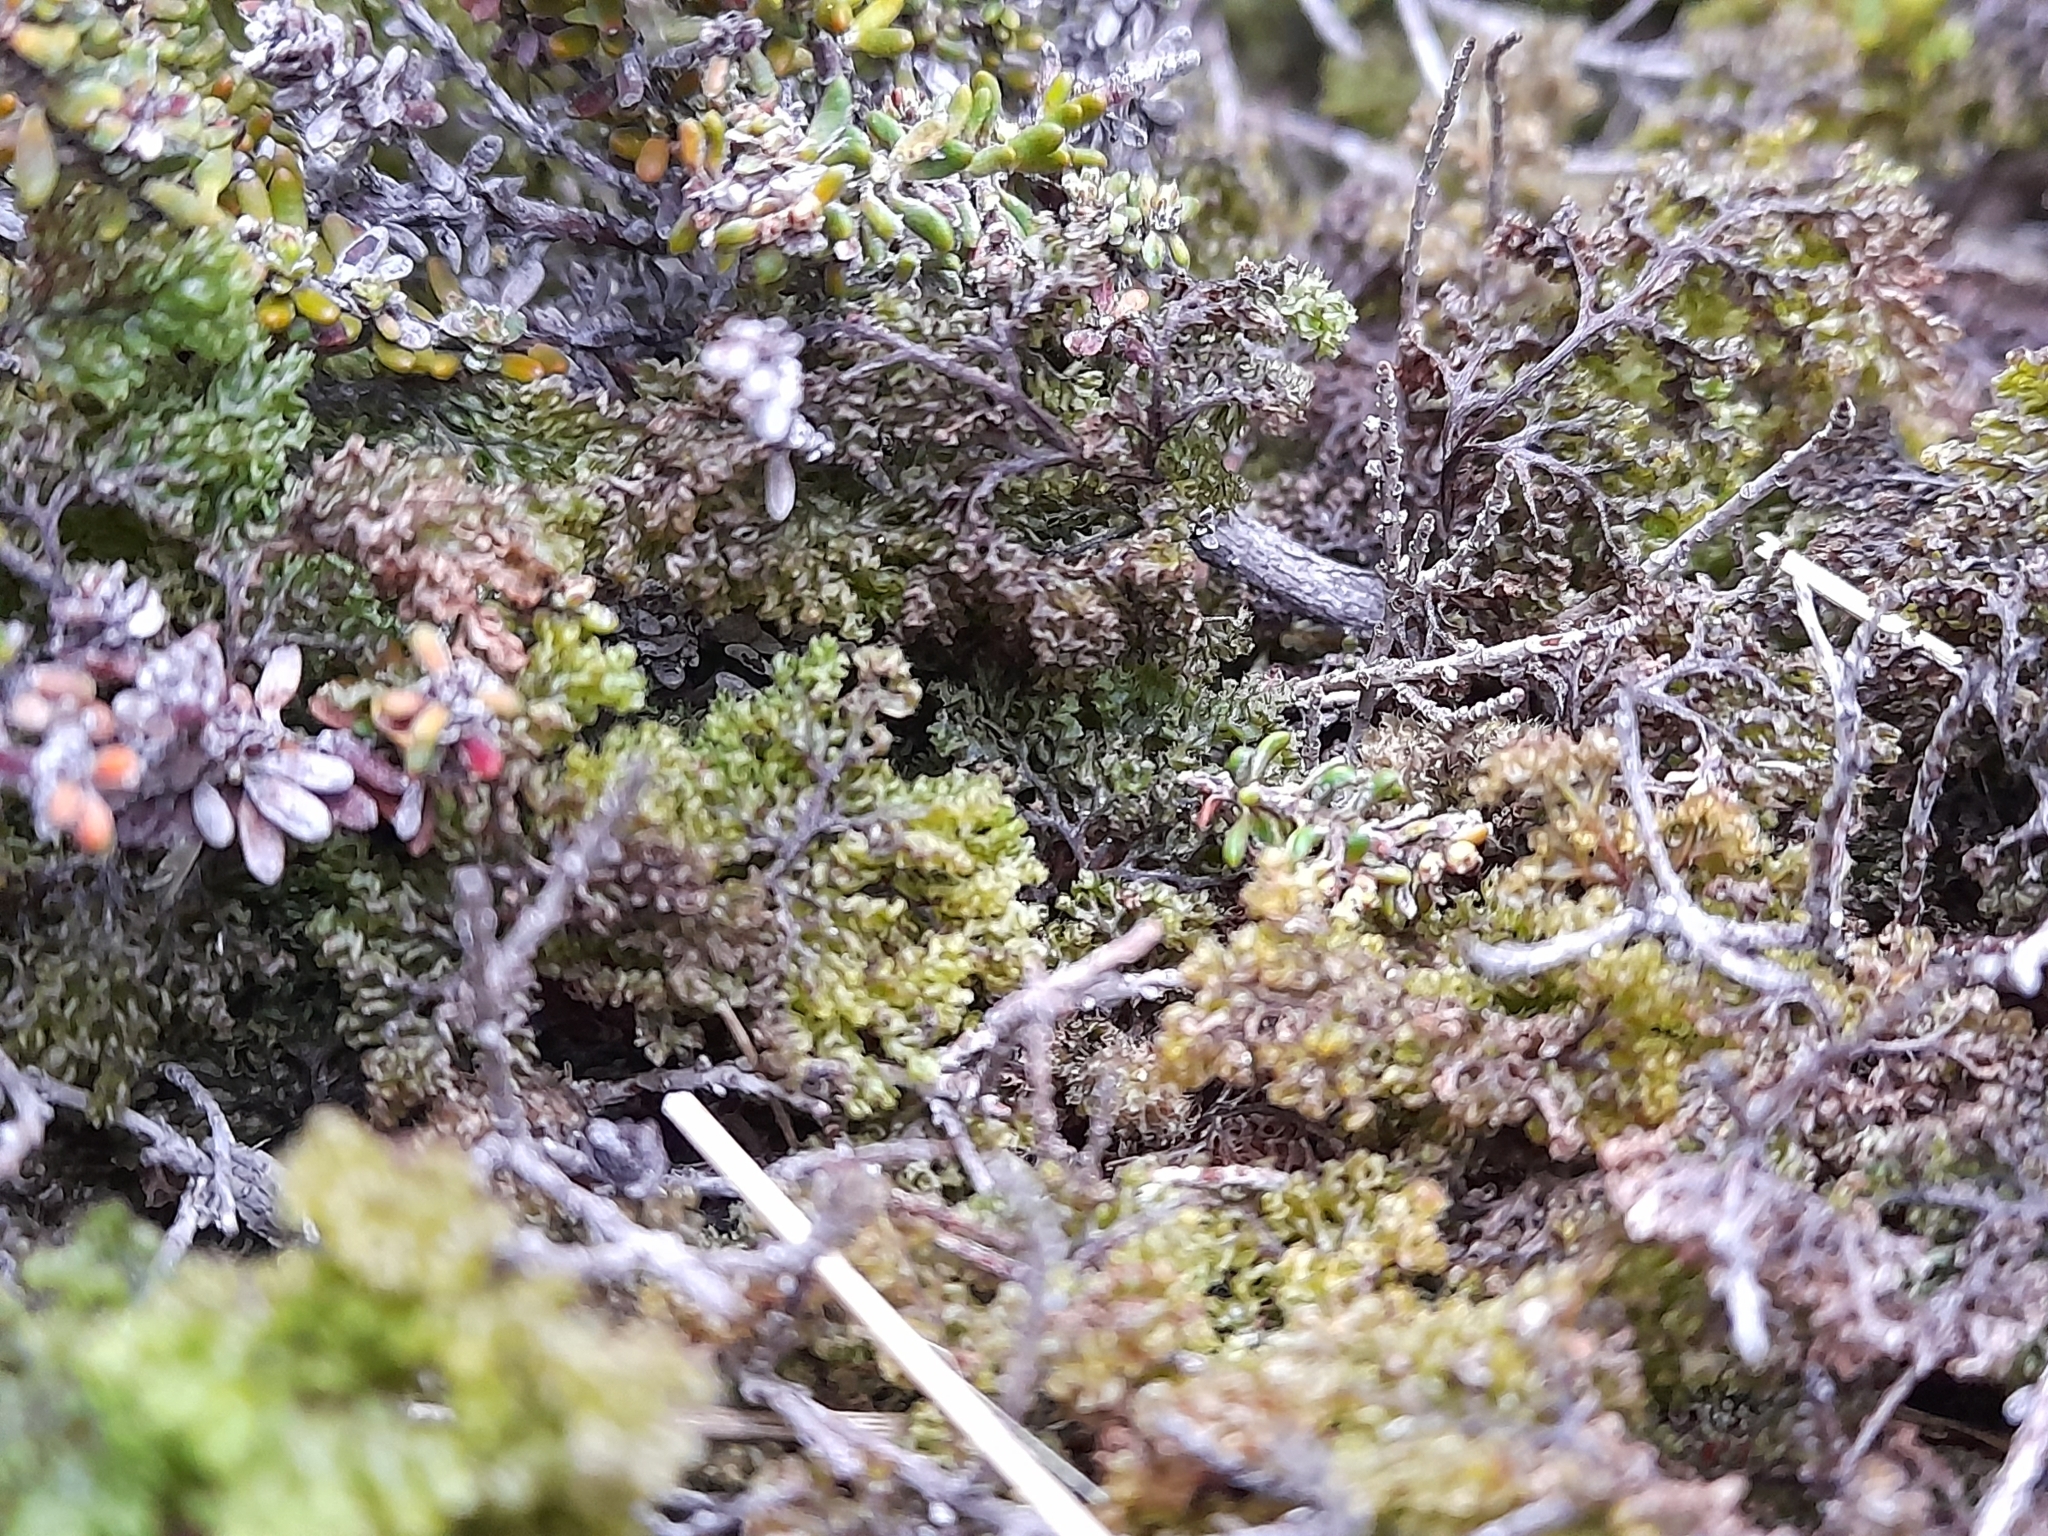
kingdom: Plantae
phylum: Tracheophyta
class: Polypodiopsida
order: Hymenophyllales
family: Hymenophyllaceae
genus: Hymenophyllum
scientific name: Hymenophyllum tortuosum
